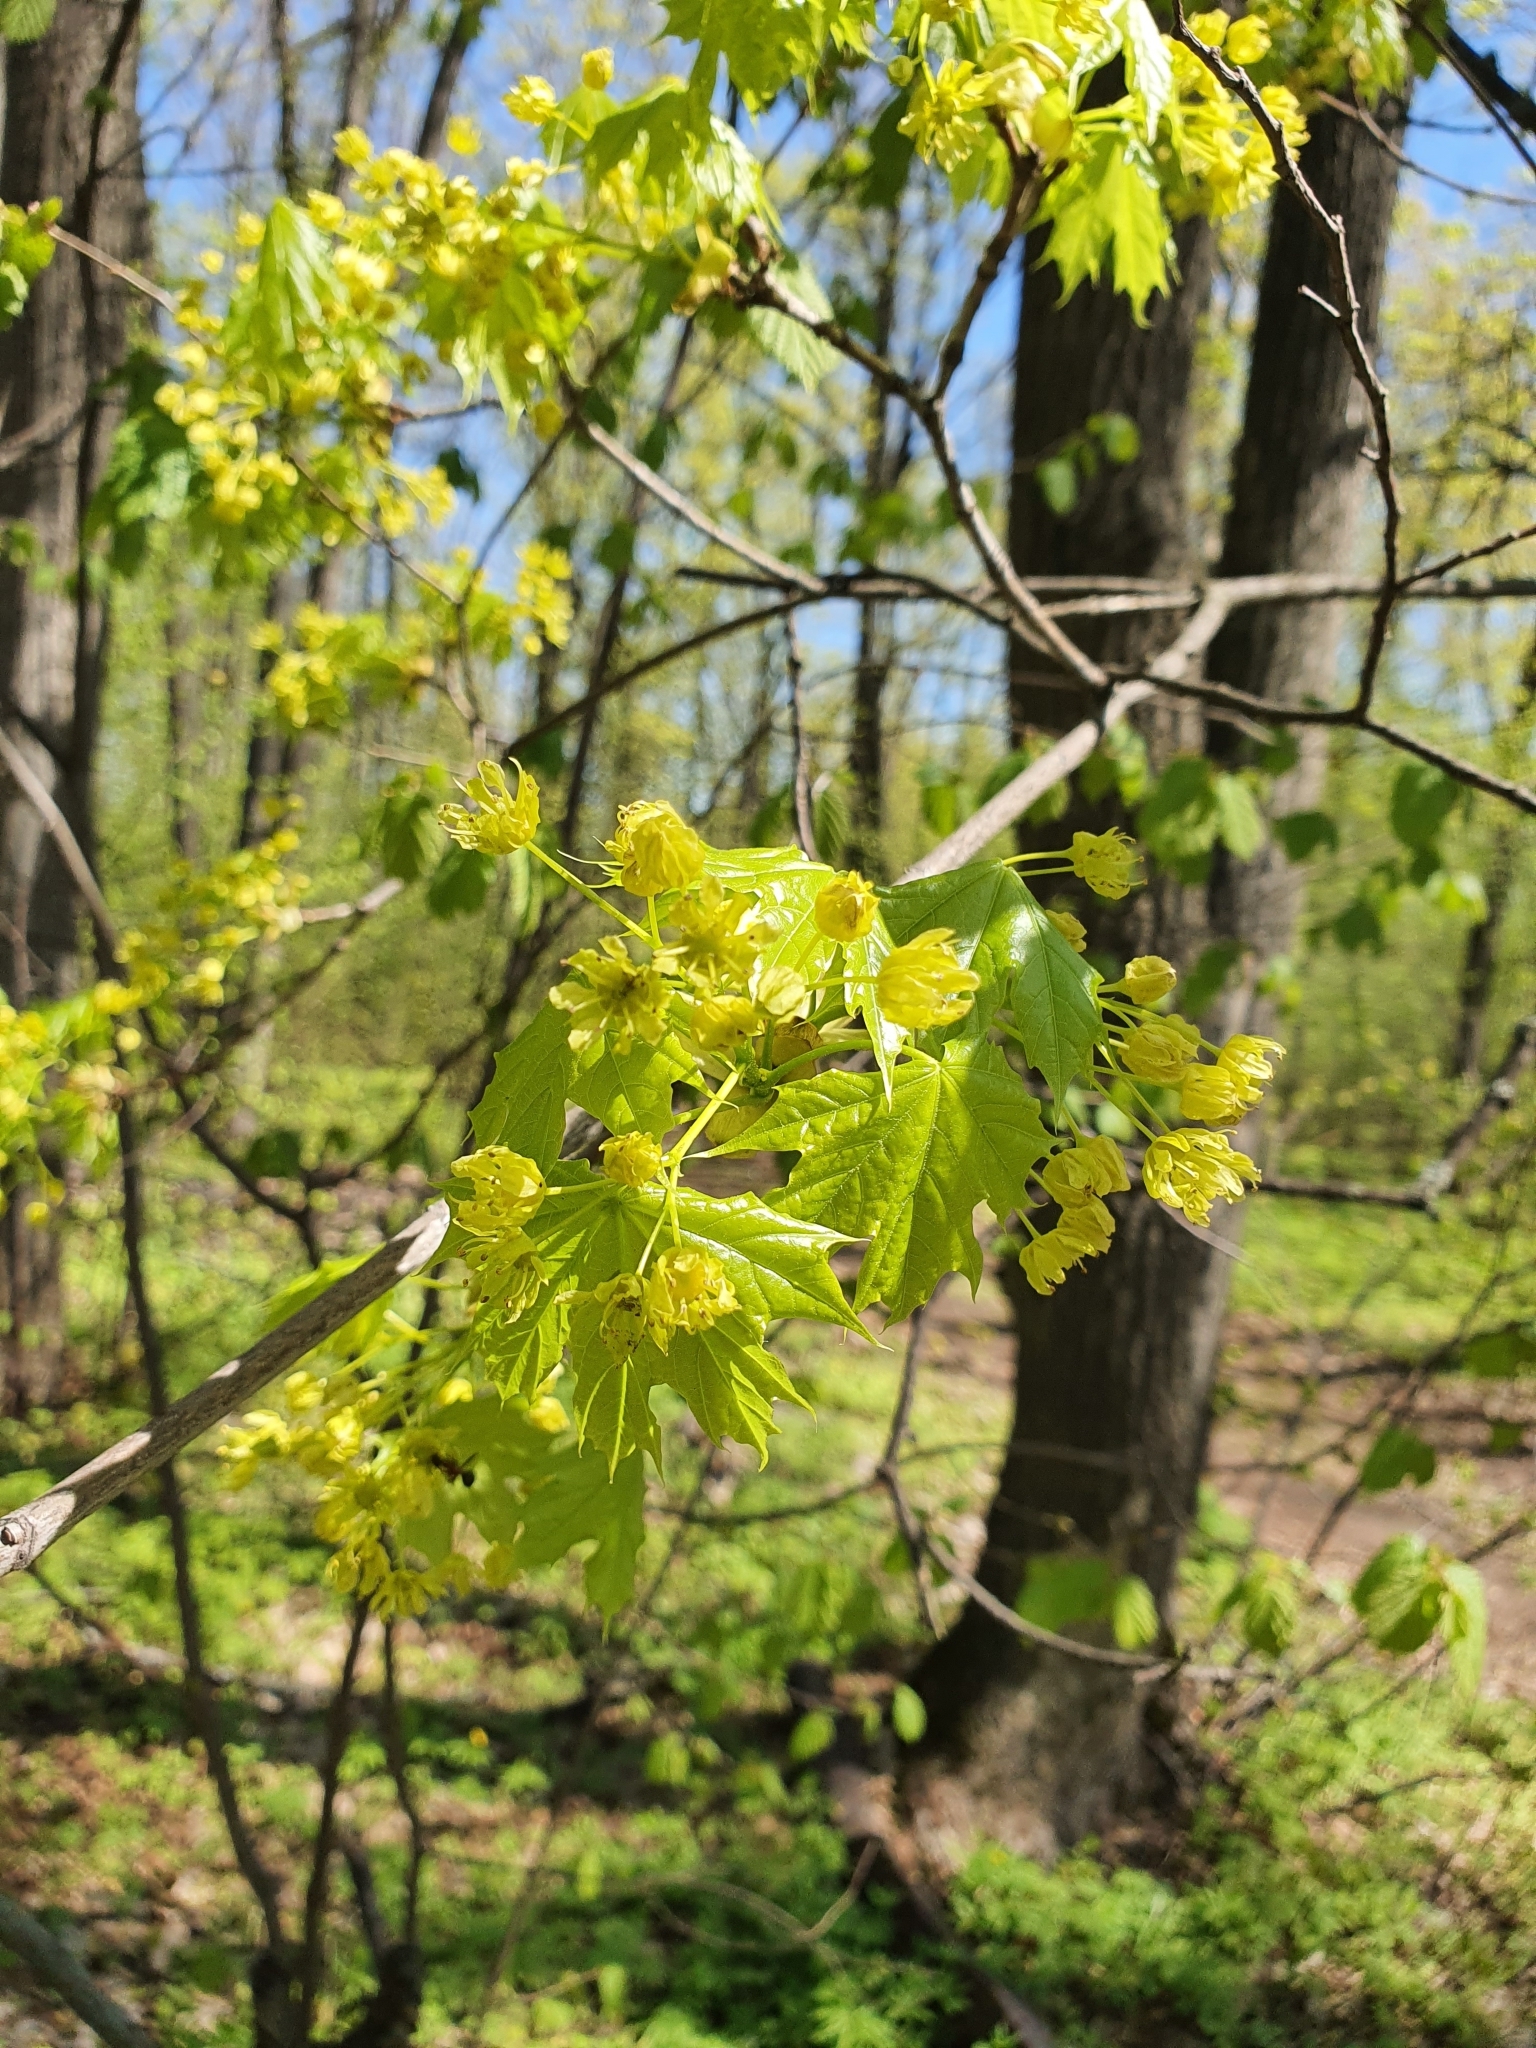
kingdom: Plantae
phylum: Tracheophyta
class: Magnoliopsida
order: Sapindales
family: Sapindaceae
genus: Acer
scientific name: Acer platanoides
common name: Norway maple
